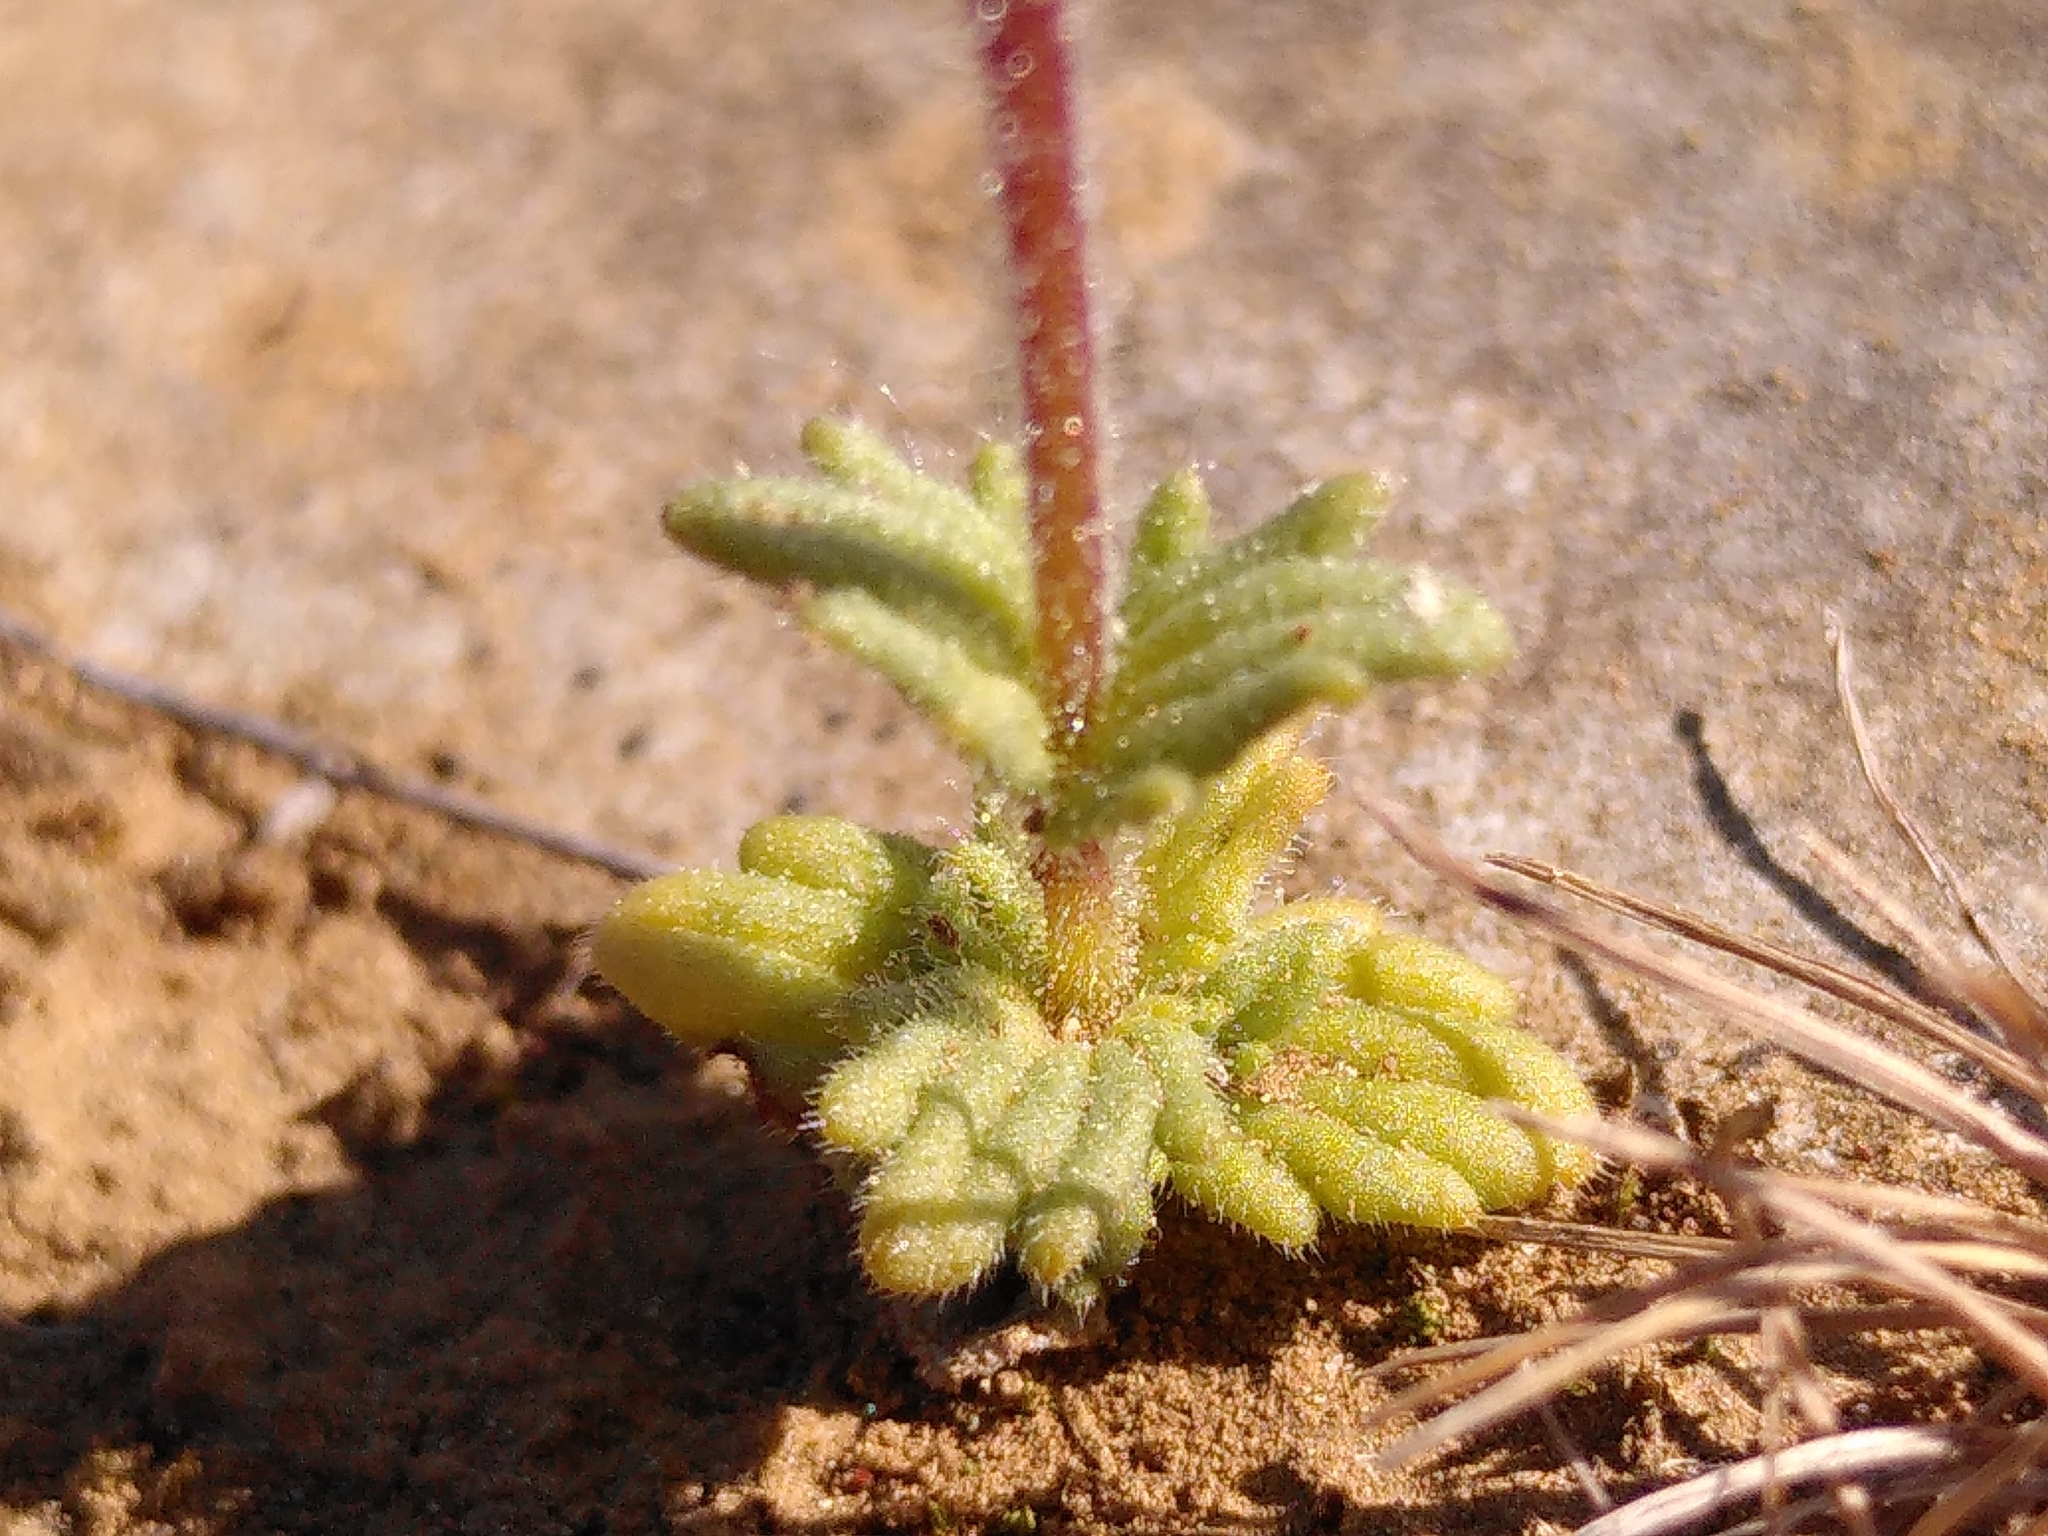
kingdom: Plantae
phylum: Tracheophyta
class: Magnoliopsida
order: Lamiales
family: Orobanchaceae
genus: Parentucellia
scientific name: Parentucellia latifolia
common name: Broadleaf glandweed
